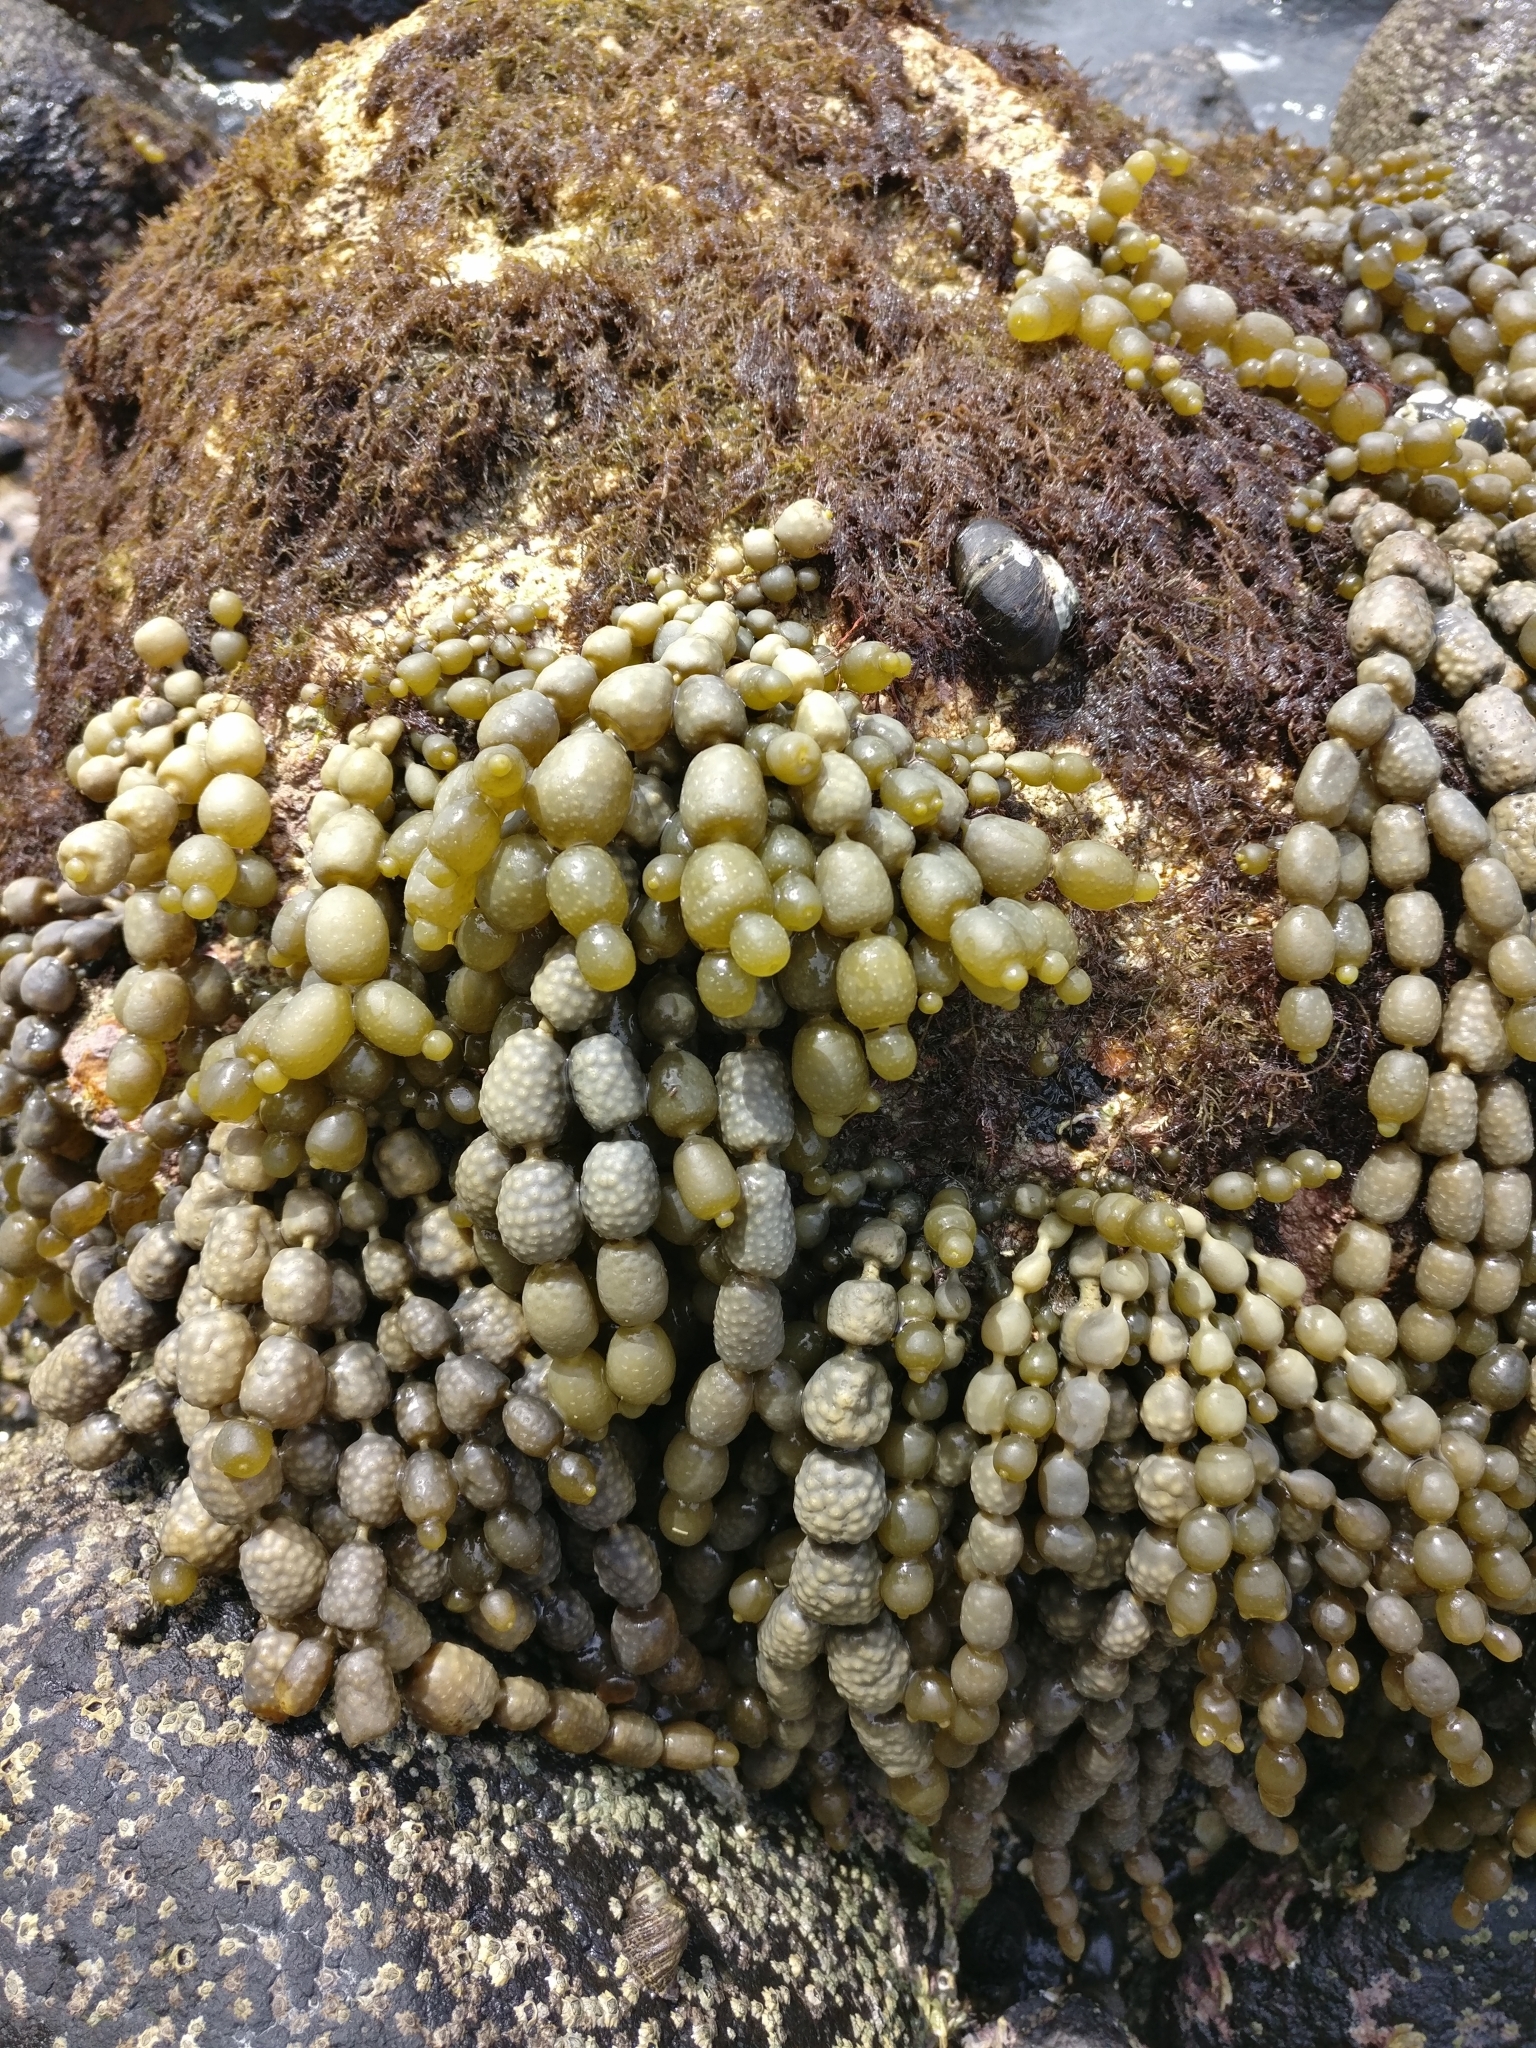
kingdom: Chromista
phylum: Ochrophyta
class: Phaeophyceae
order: Fucales
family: Hormosiraceae
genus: Hormosira
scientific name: Hormosira banksii
